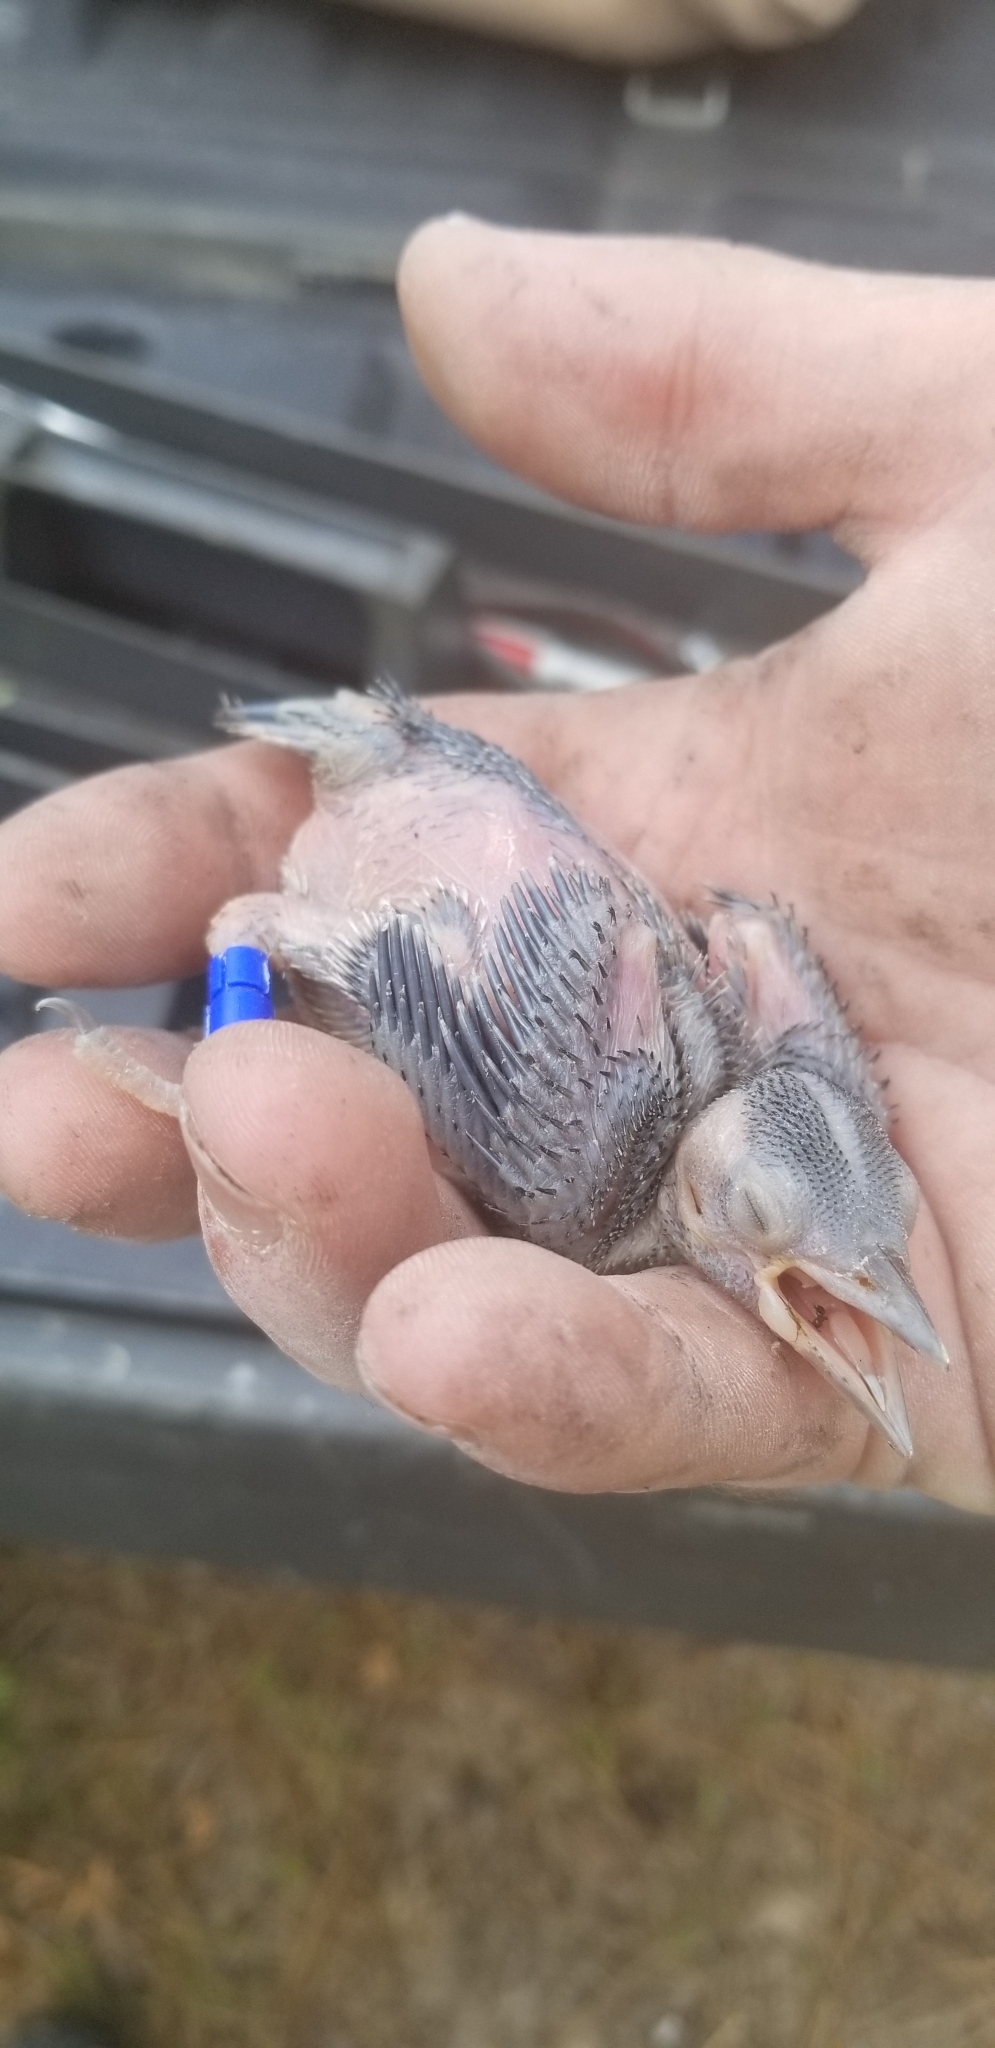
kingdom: Animalia
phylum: Chordata
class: Aves
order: Piciformes
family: Picidae
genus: Leuconotopicus
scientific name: Leuconotopicus borealis
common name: Red-cockaded woodpecker
